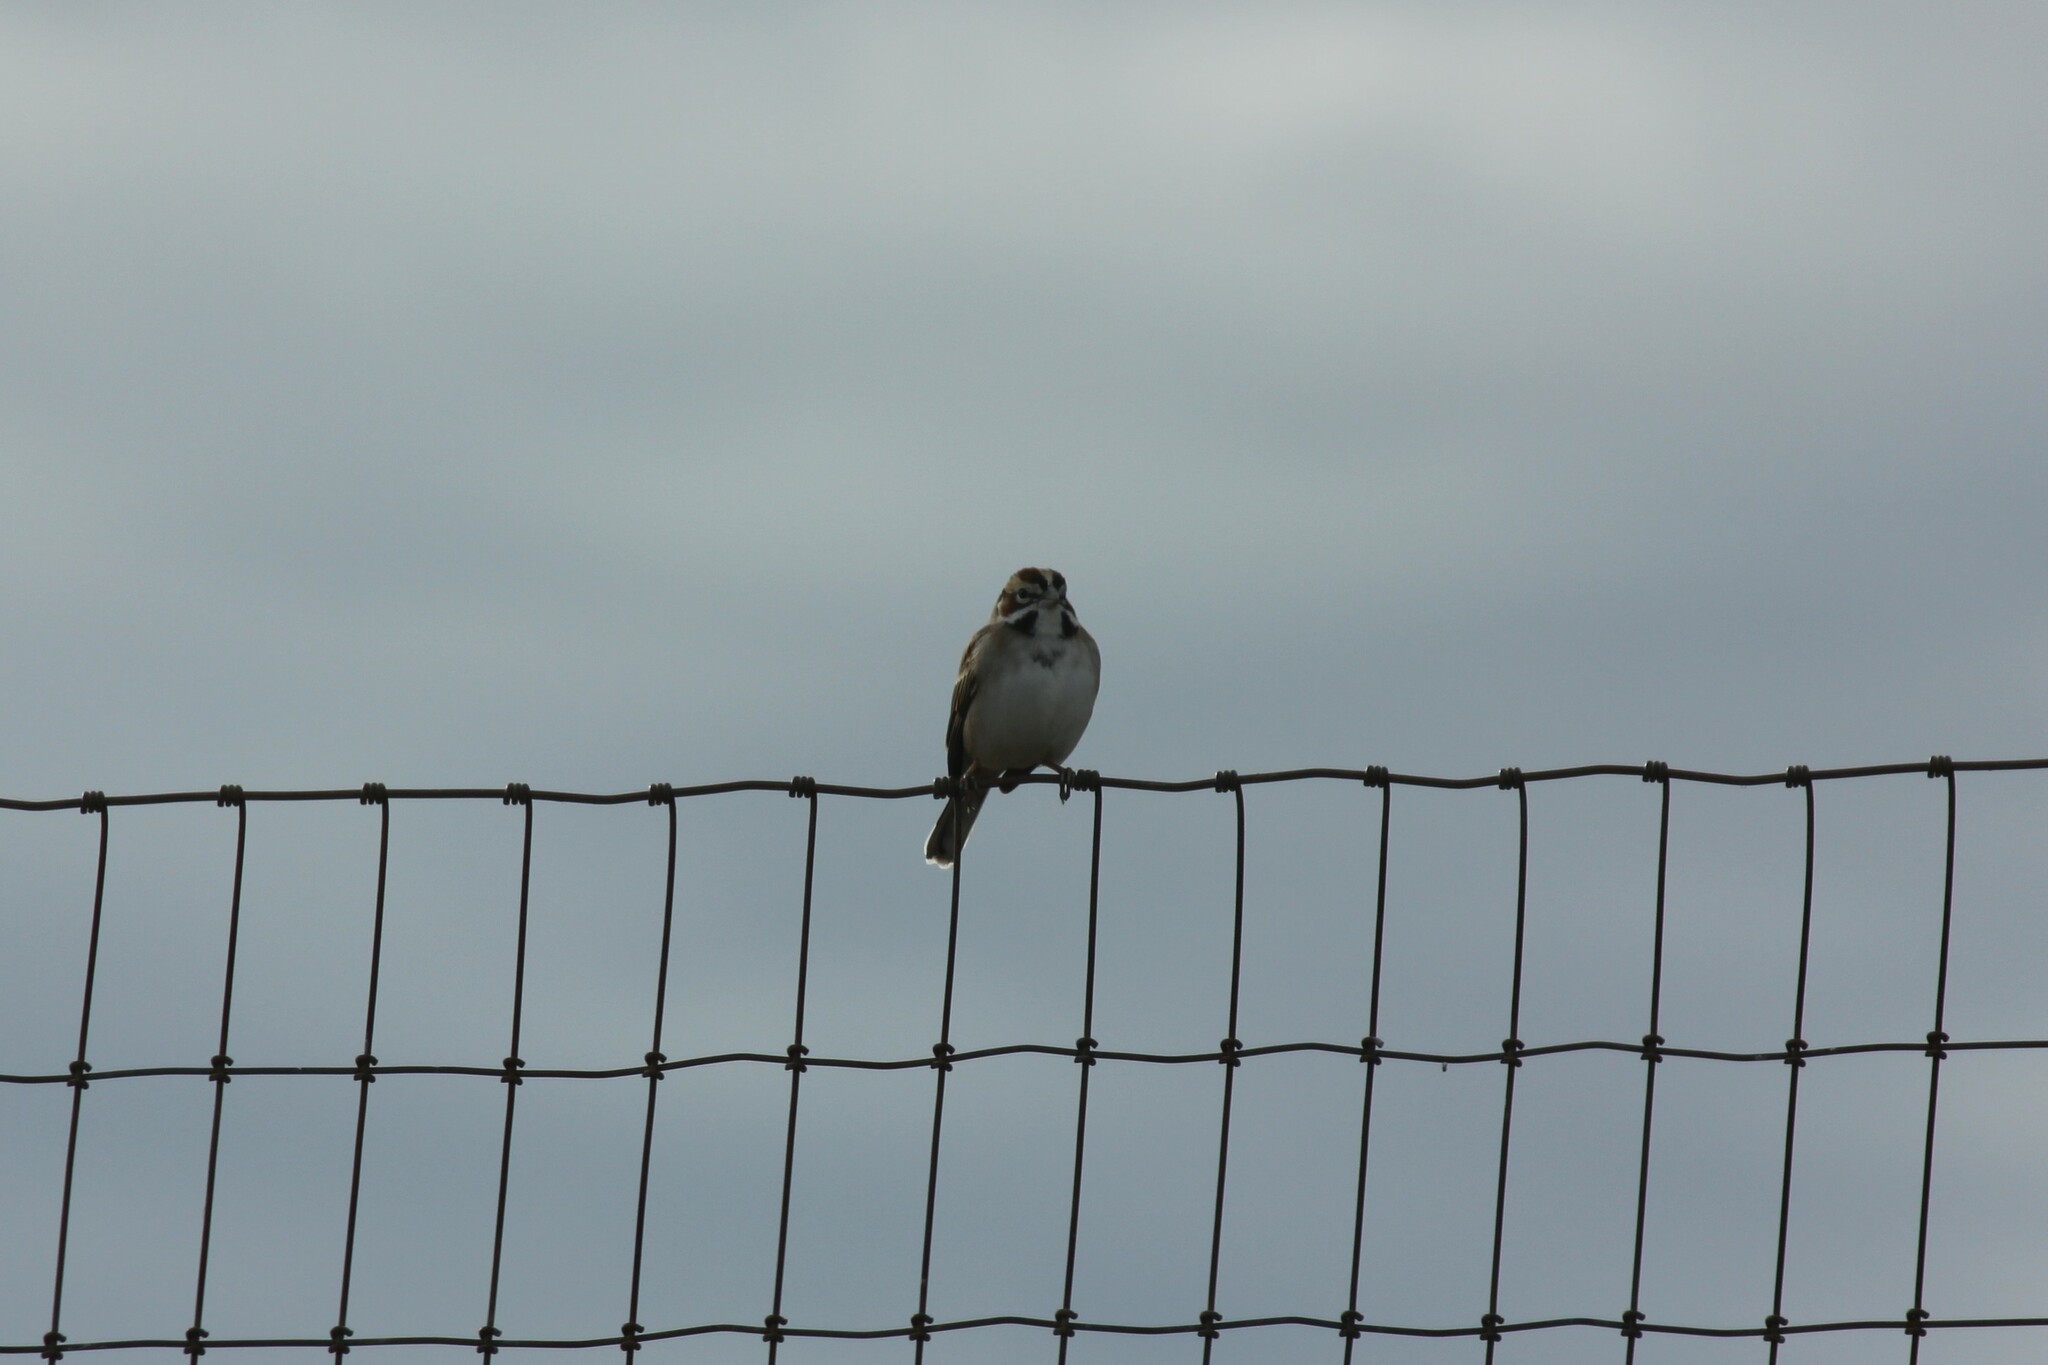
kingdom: Animalia
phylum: Chordata
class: Aves
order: Passeriformes
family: Passerellidae
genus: Chondestes
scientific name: Chondestes grammacus
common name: Lark sparrow
